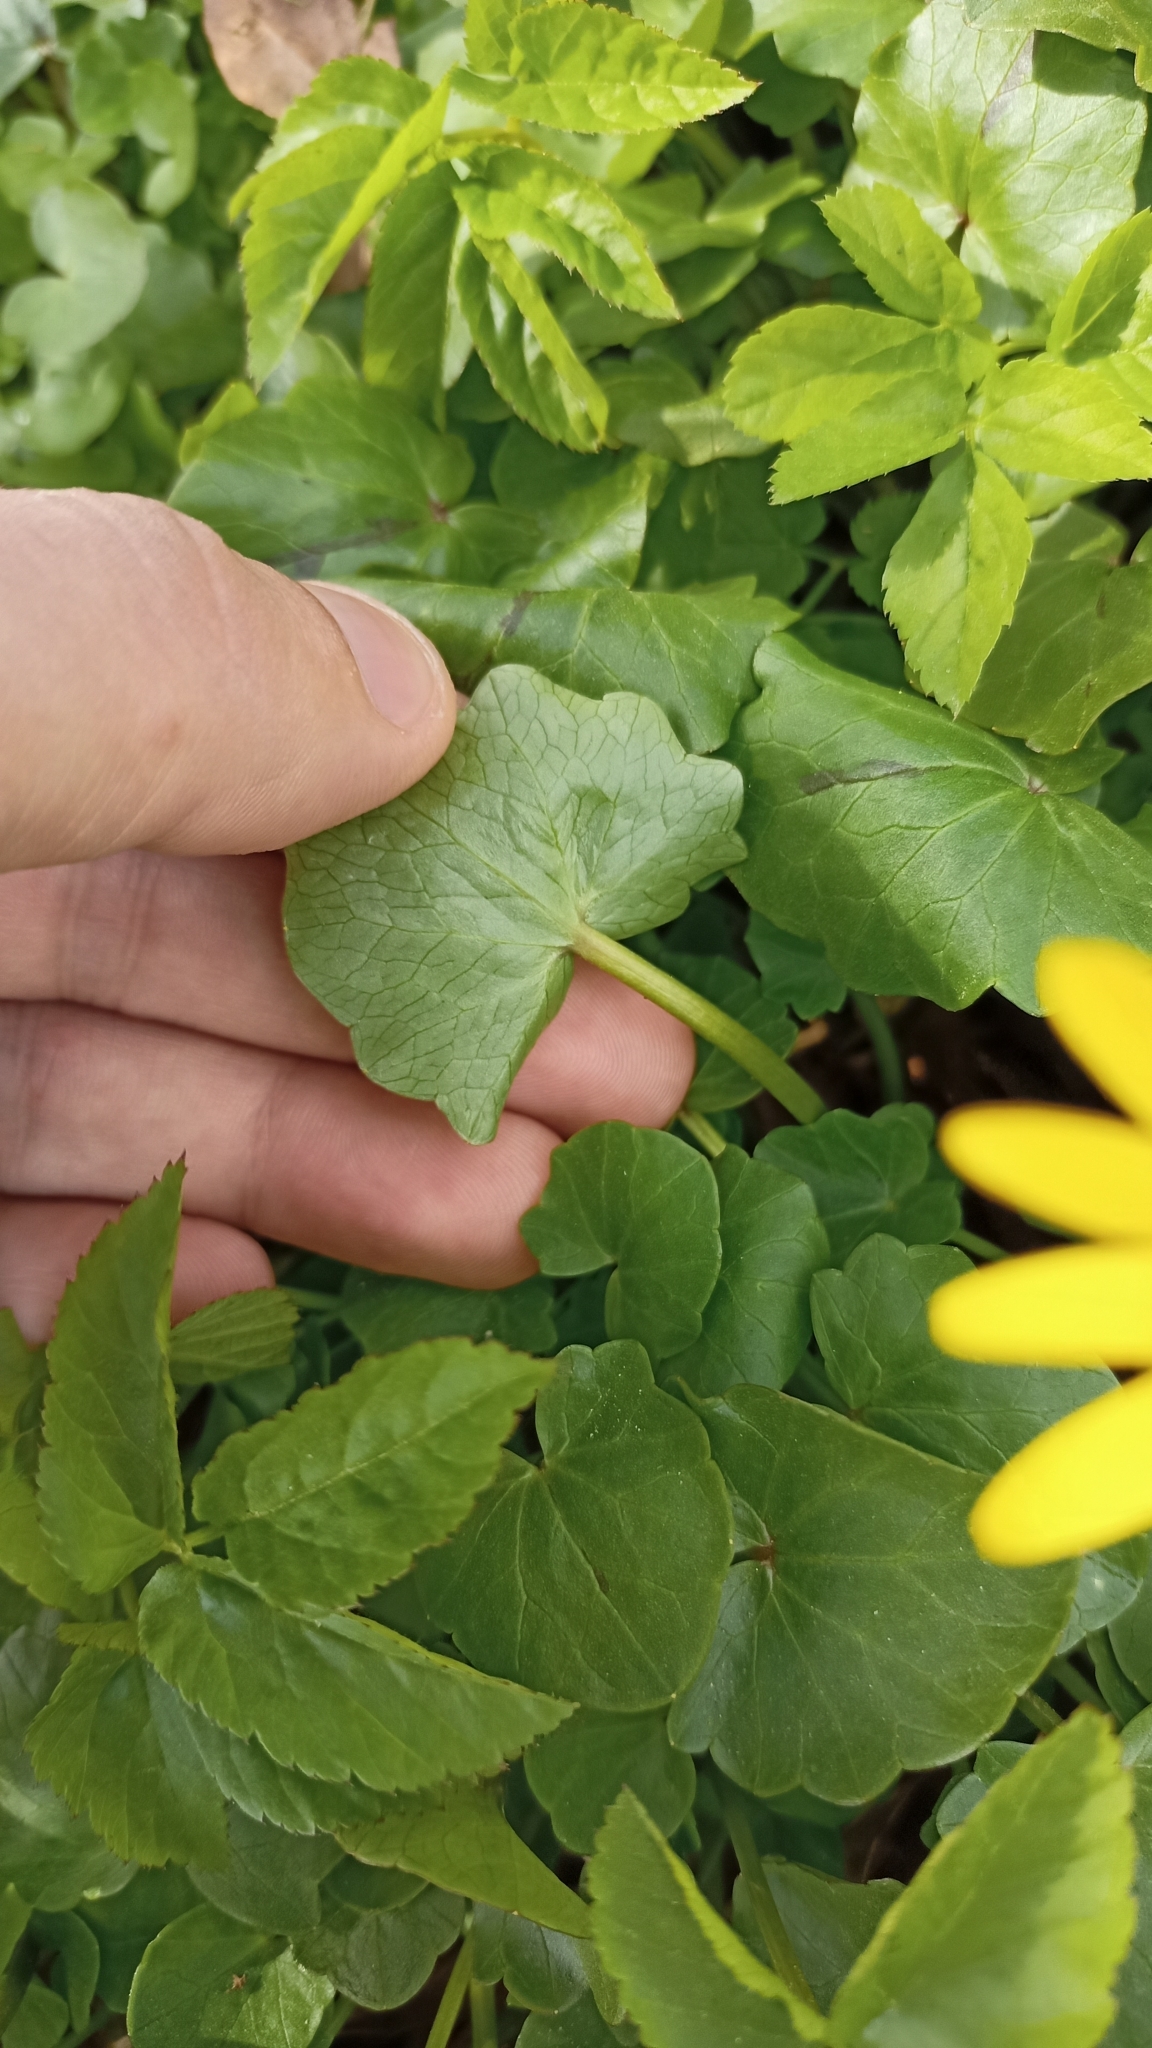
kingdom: Plantae
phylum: Tracheophyta
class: Magnoliopsida
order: Ranunculales
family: Ranunculaceae
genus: Ficaria
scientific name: Ficaria verna
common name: Lesser celandine
